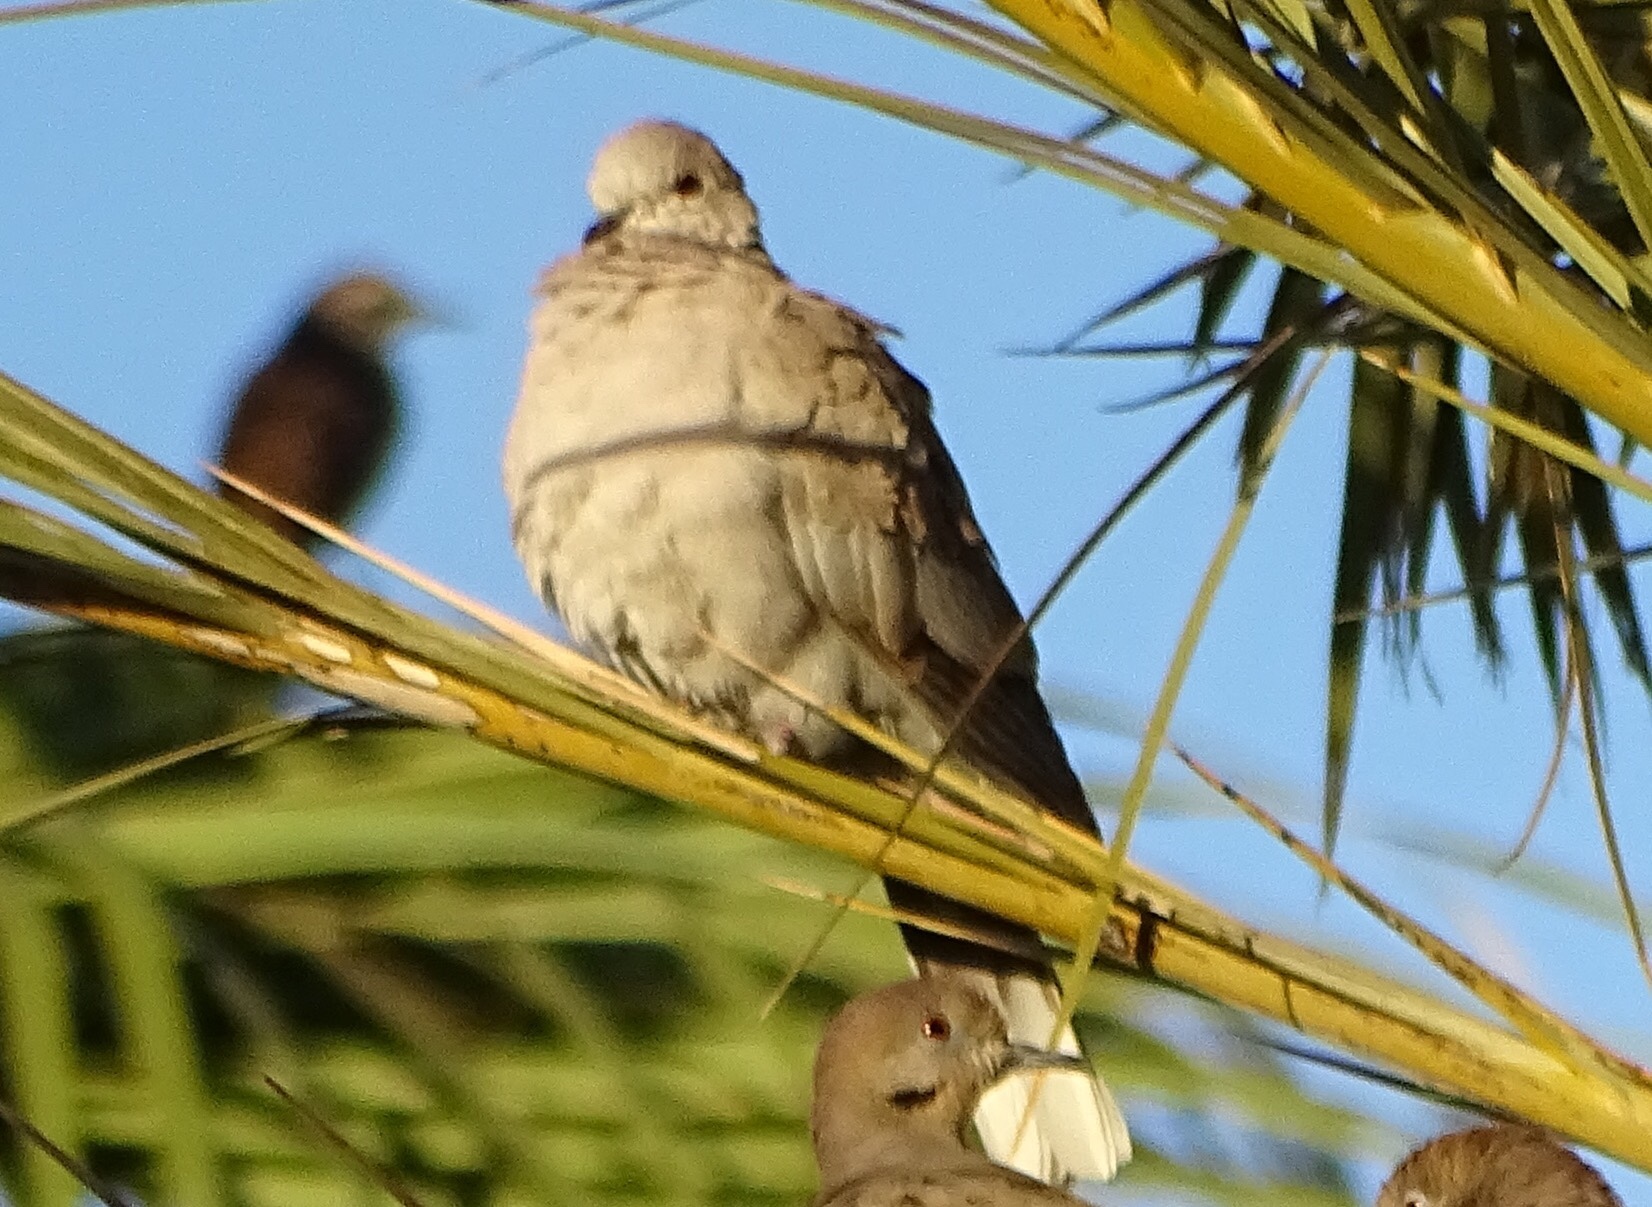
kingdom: Animalia
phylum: Chordata
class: Aves
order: Columbiformes
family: Columbidae
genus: Streptopelia
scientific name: Streptopelia decaocto
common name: Eurasian collared dove
